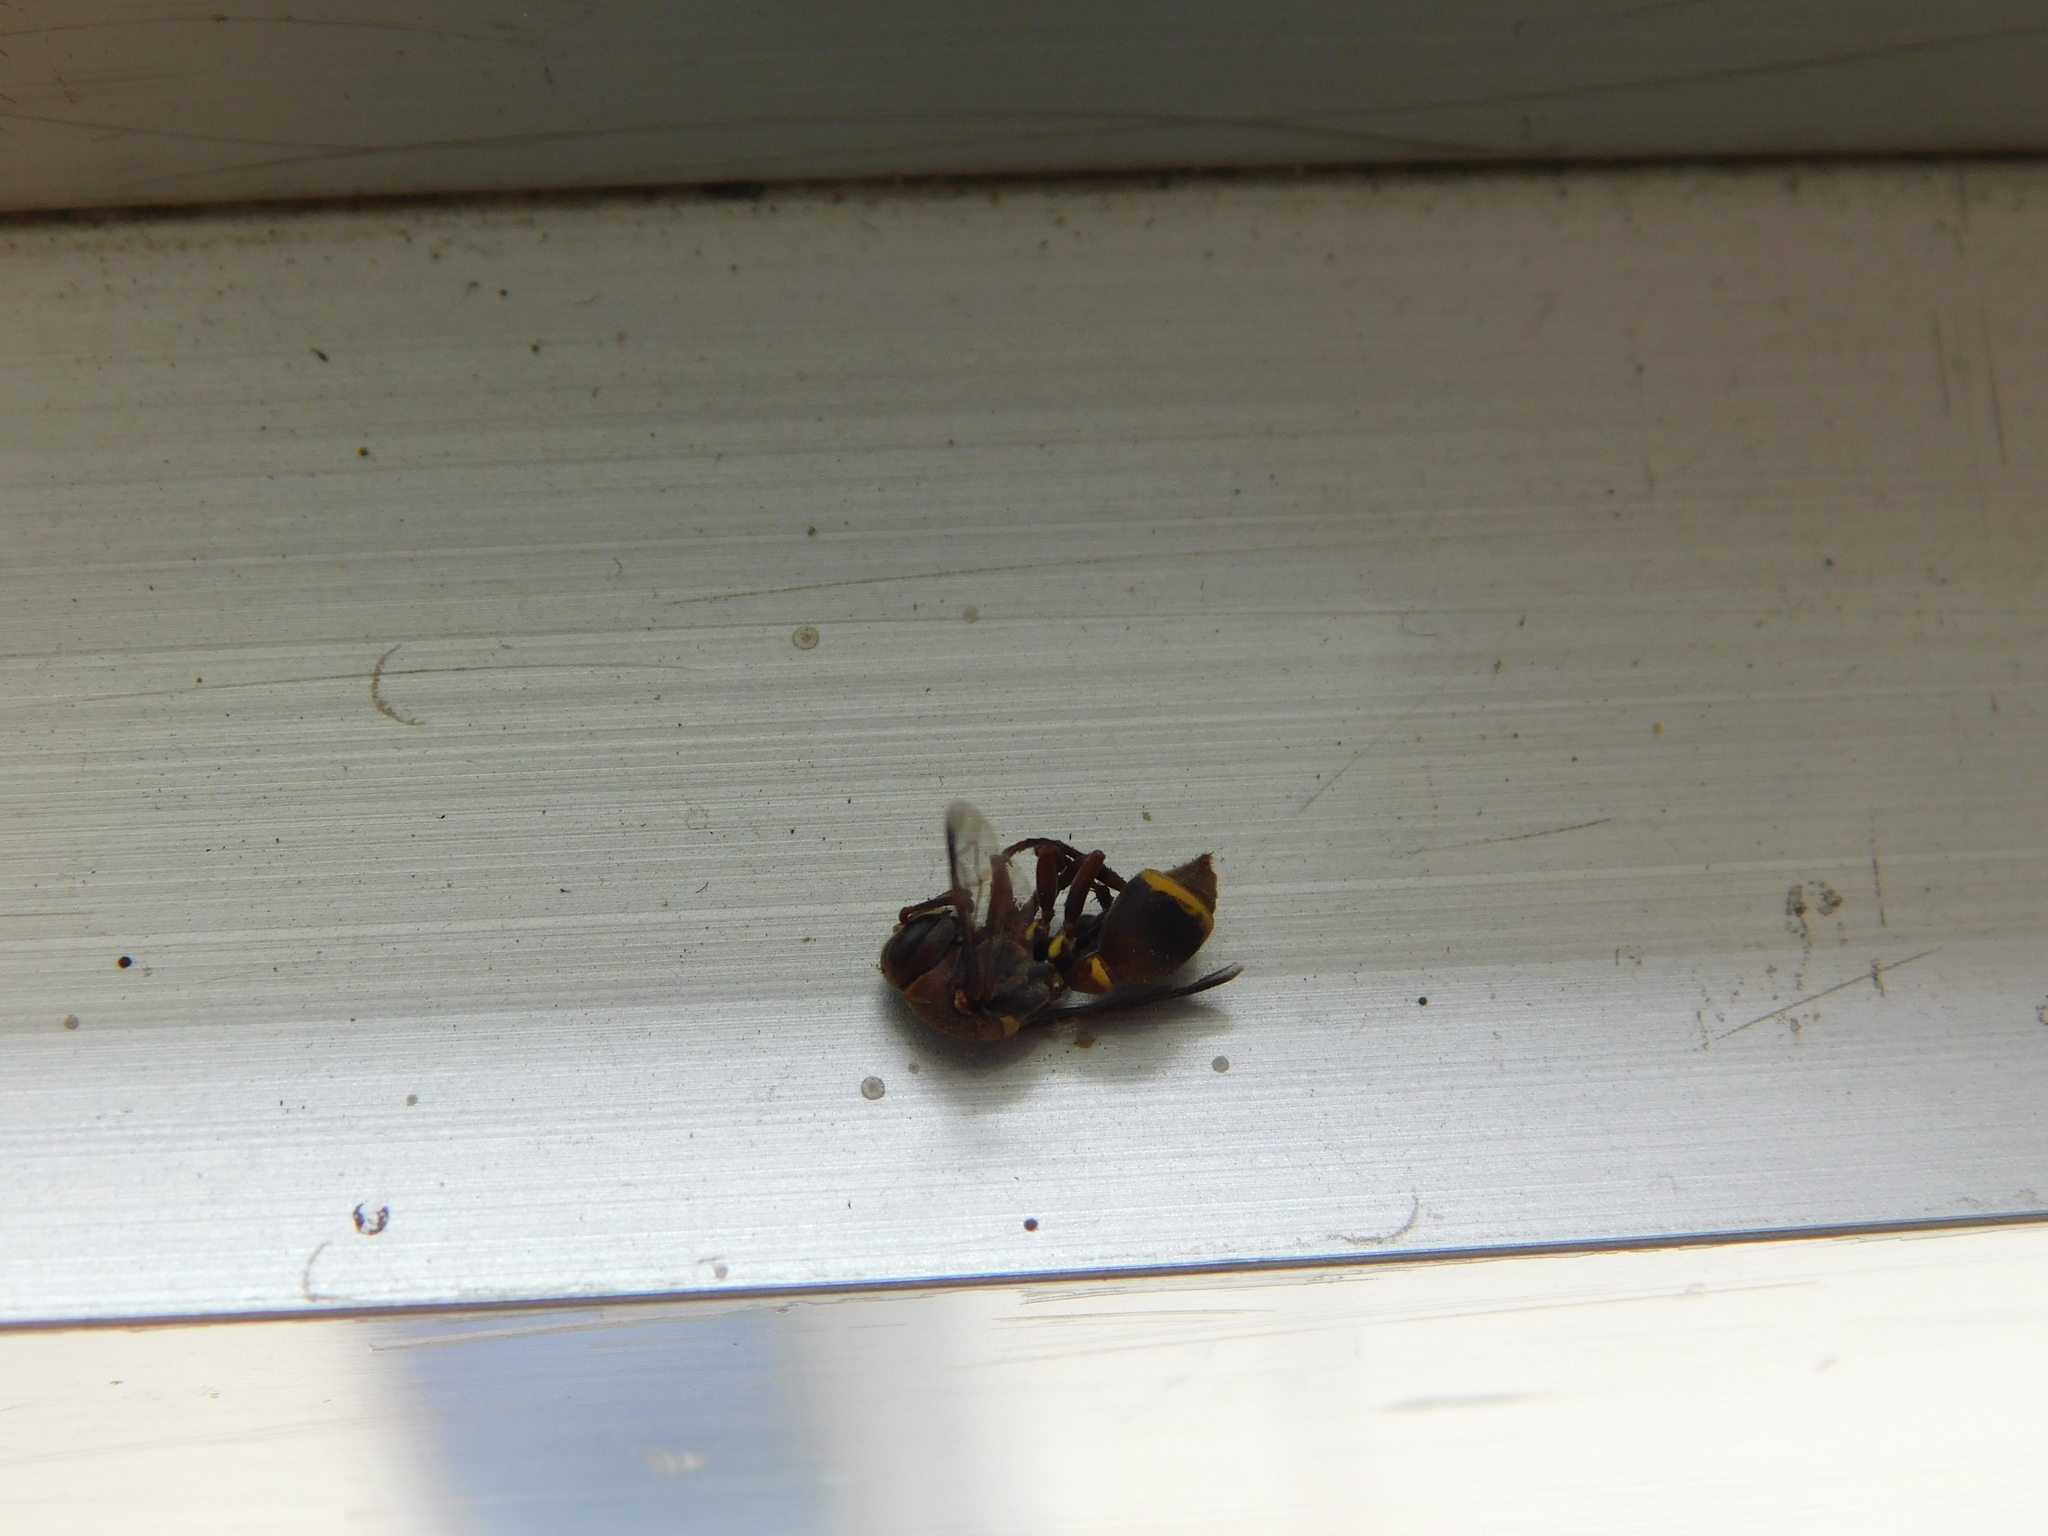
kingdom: Animalia
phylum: Arthropoda
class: Insecta
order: Hymenoptera
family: Vespidae
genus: Ropalidia
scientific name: Ropalidia rufoplagiata
